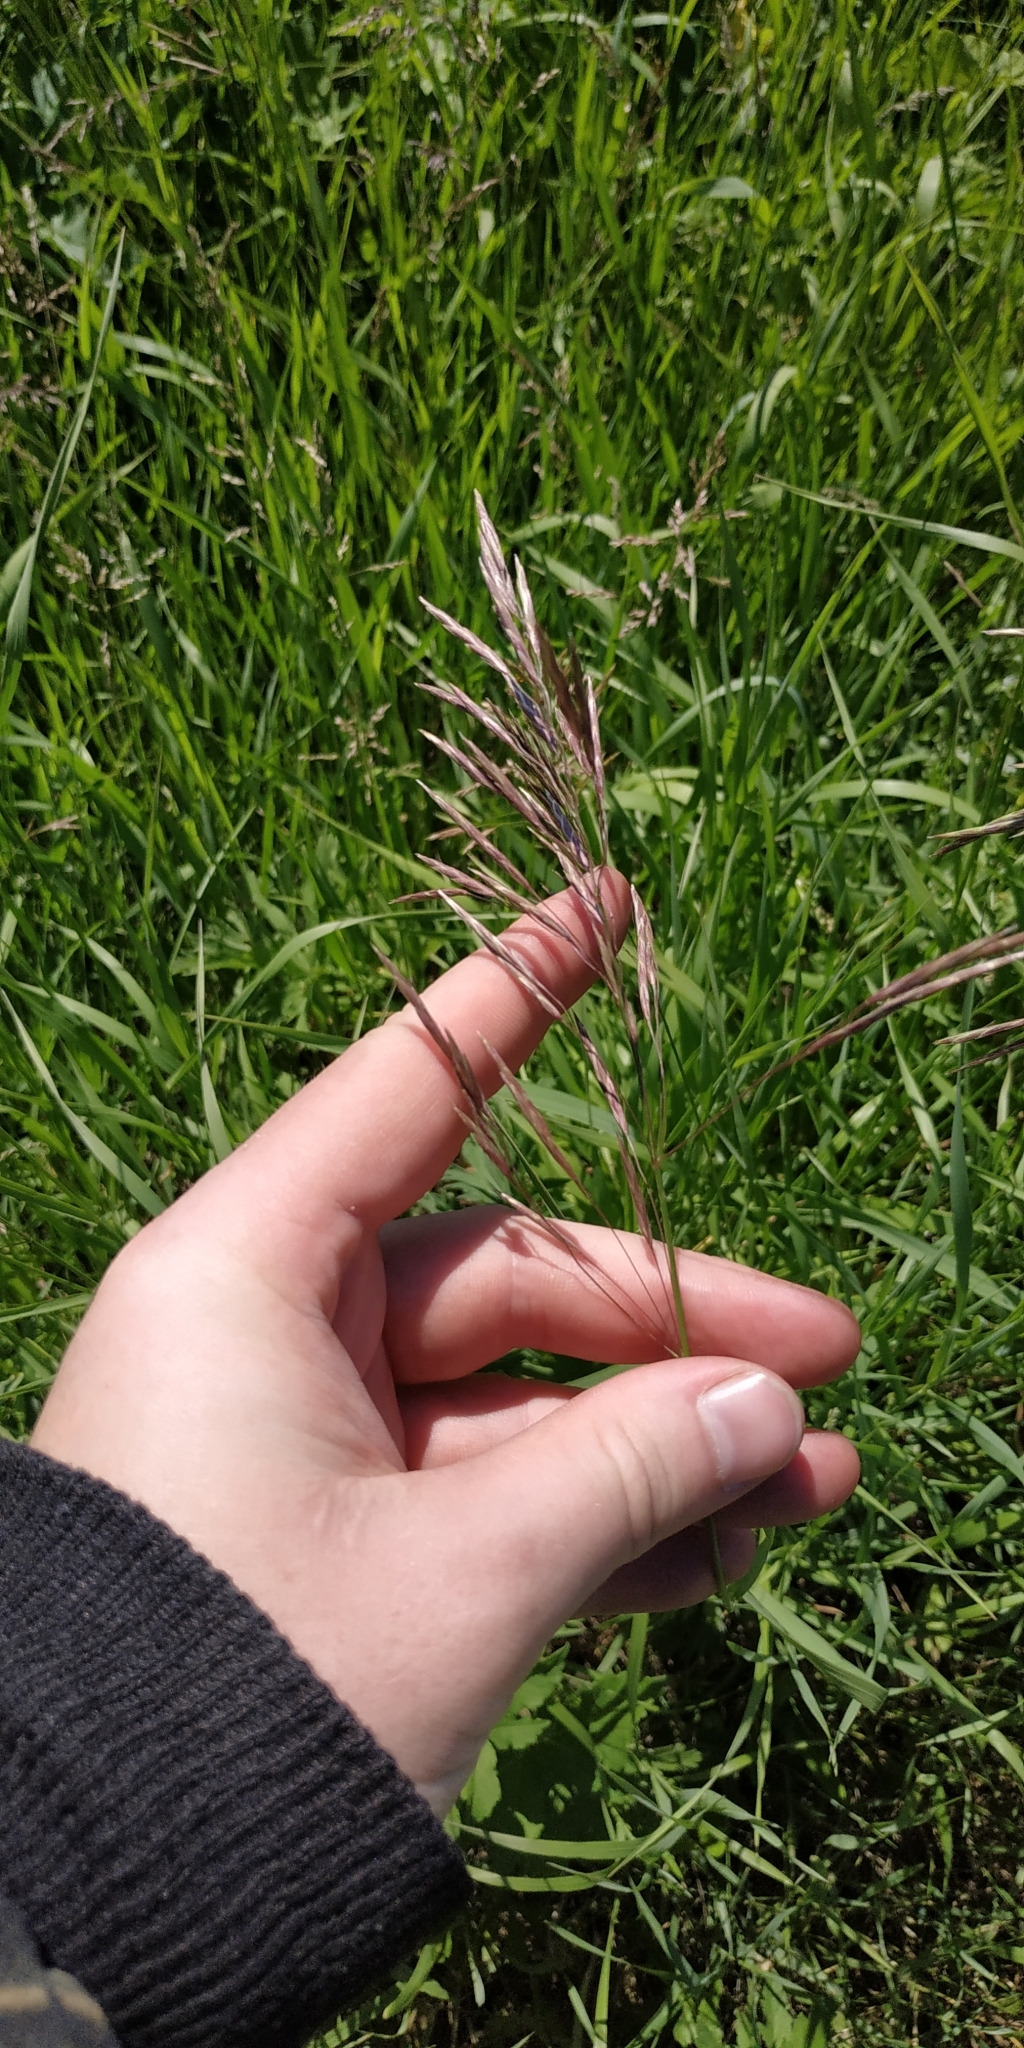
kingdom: Plantae
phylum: Tracheophyta
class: Liliopsida
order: Poales
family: Poaceae
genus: Bromus
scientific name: Bromus inermis
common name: Smooth brome
